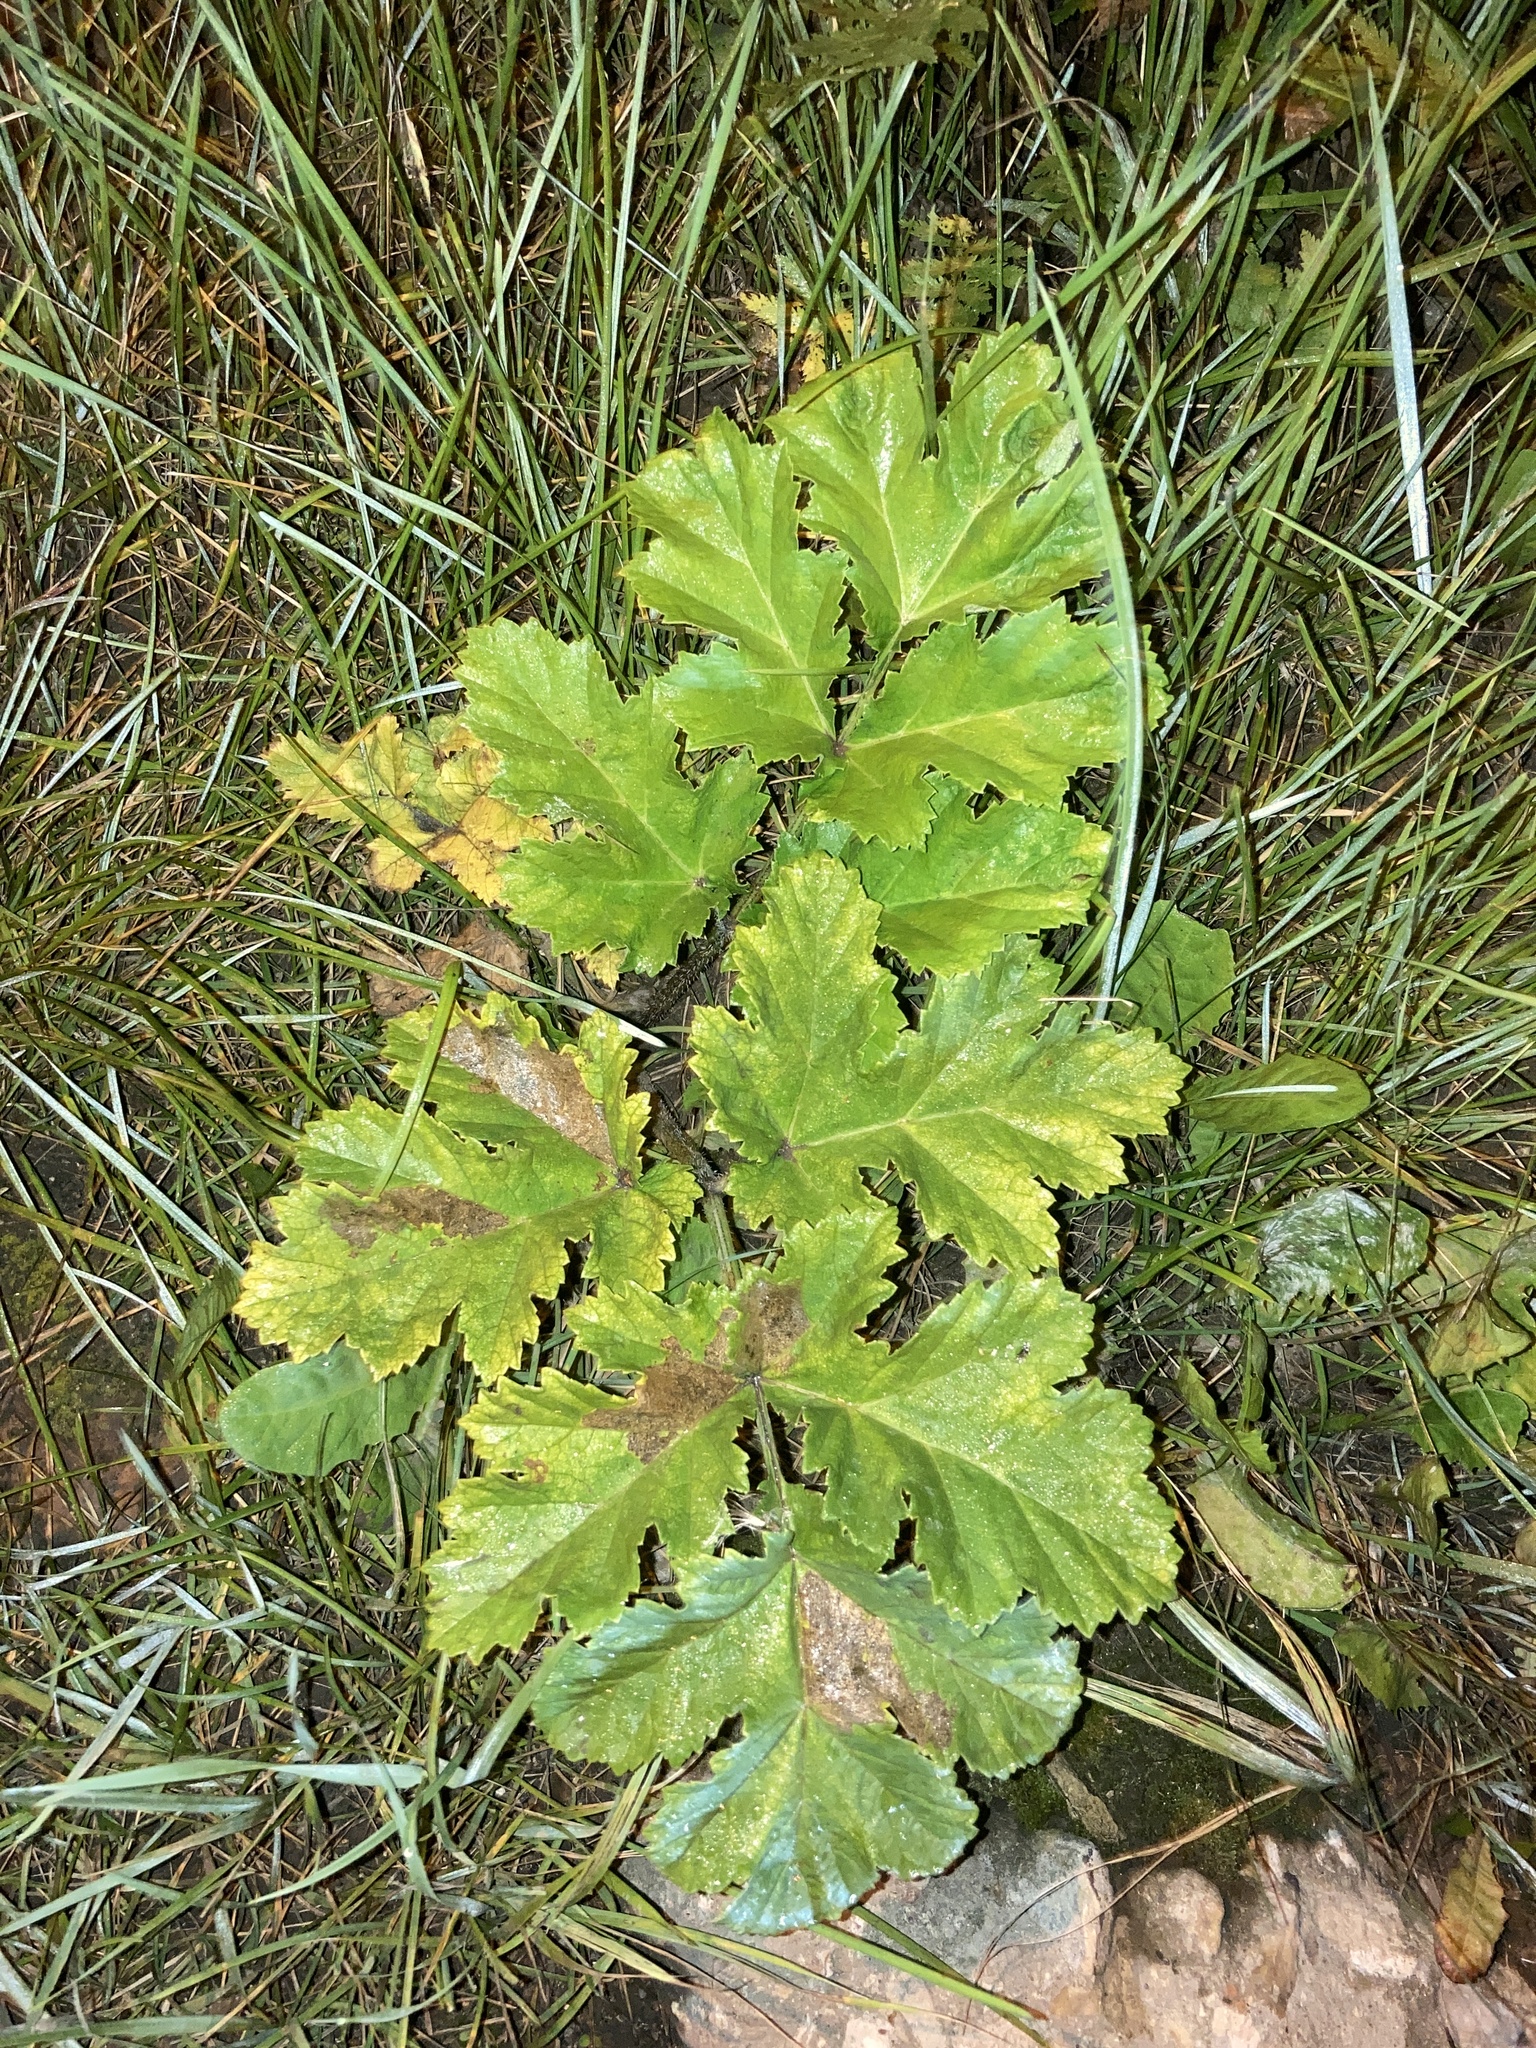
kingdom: Plantae
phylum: Tracheophyta
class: Magnoliopsida
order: Apiales
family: Apiaceae
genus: Heracleum
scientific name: Heracleum sosnowskyi
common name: Sosnowsky's hogweed
